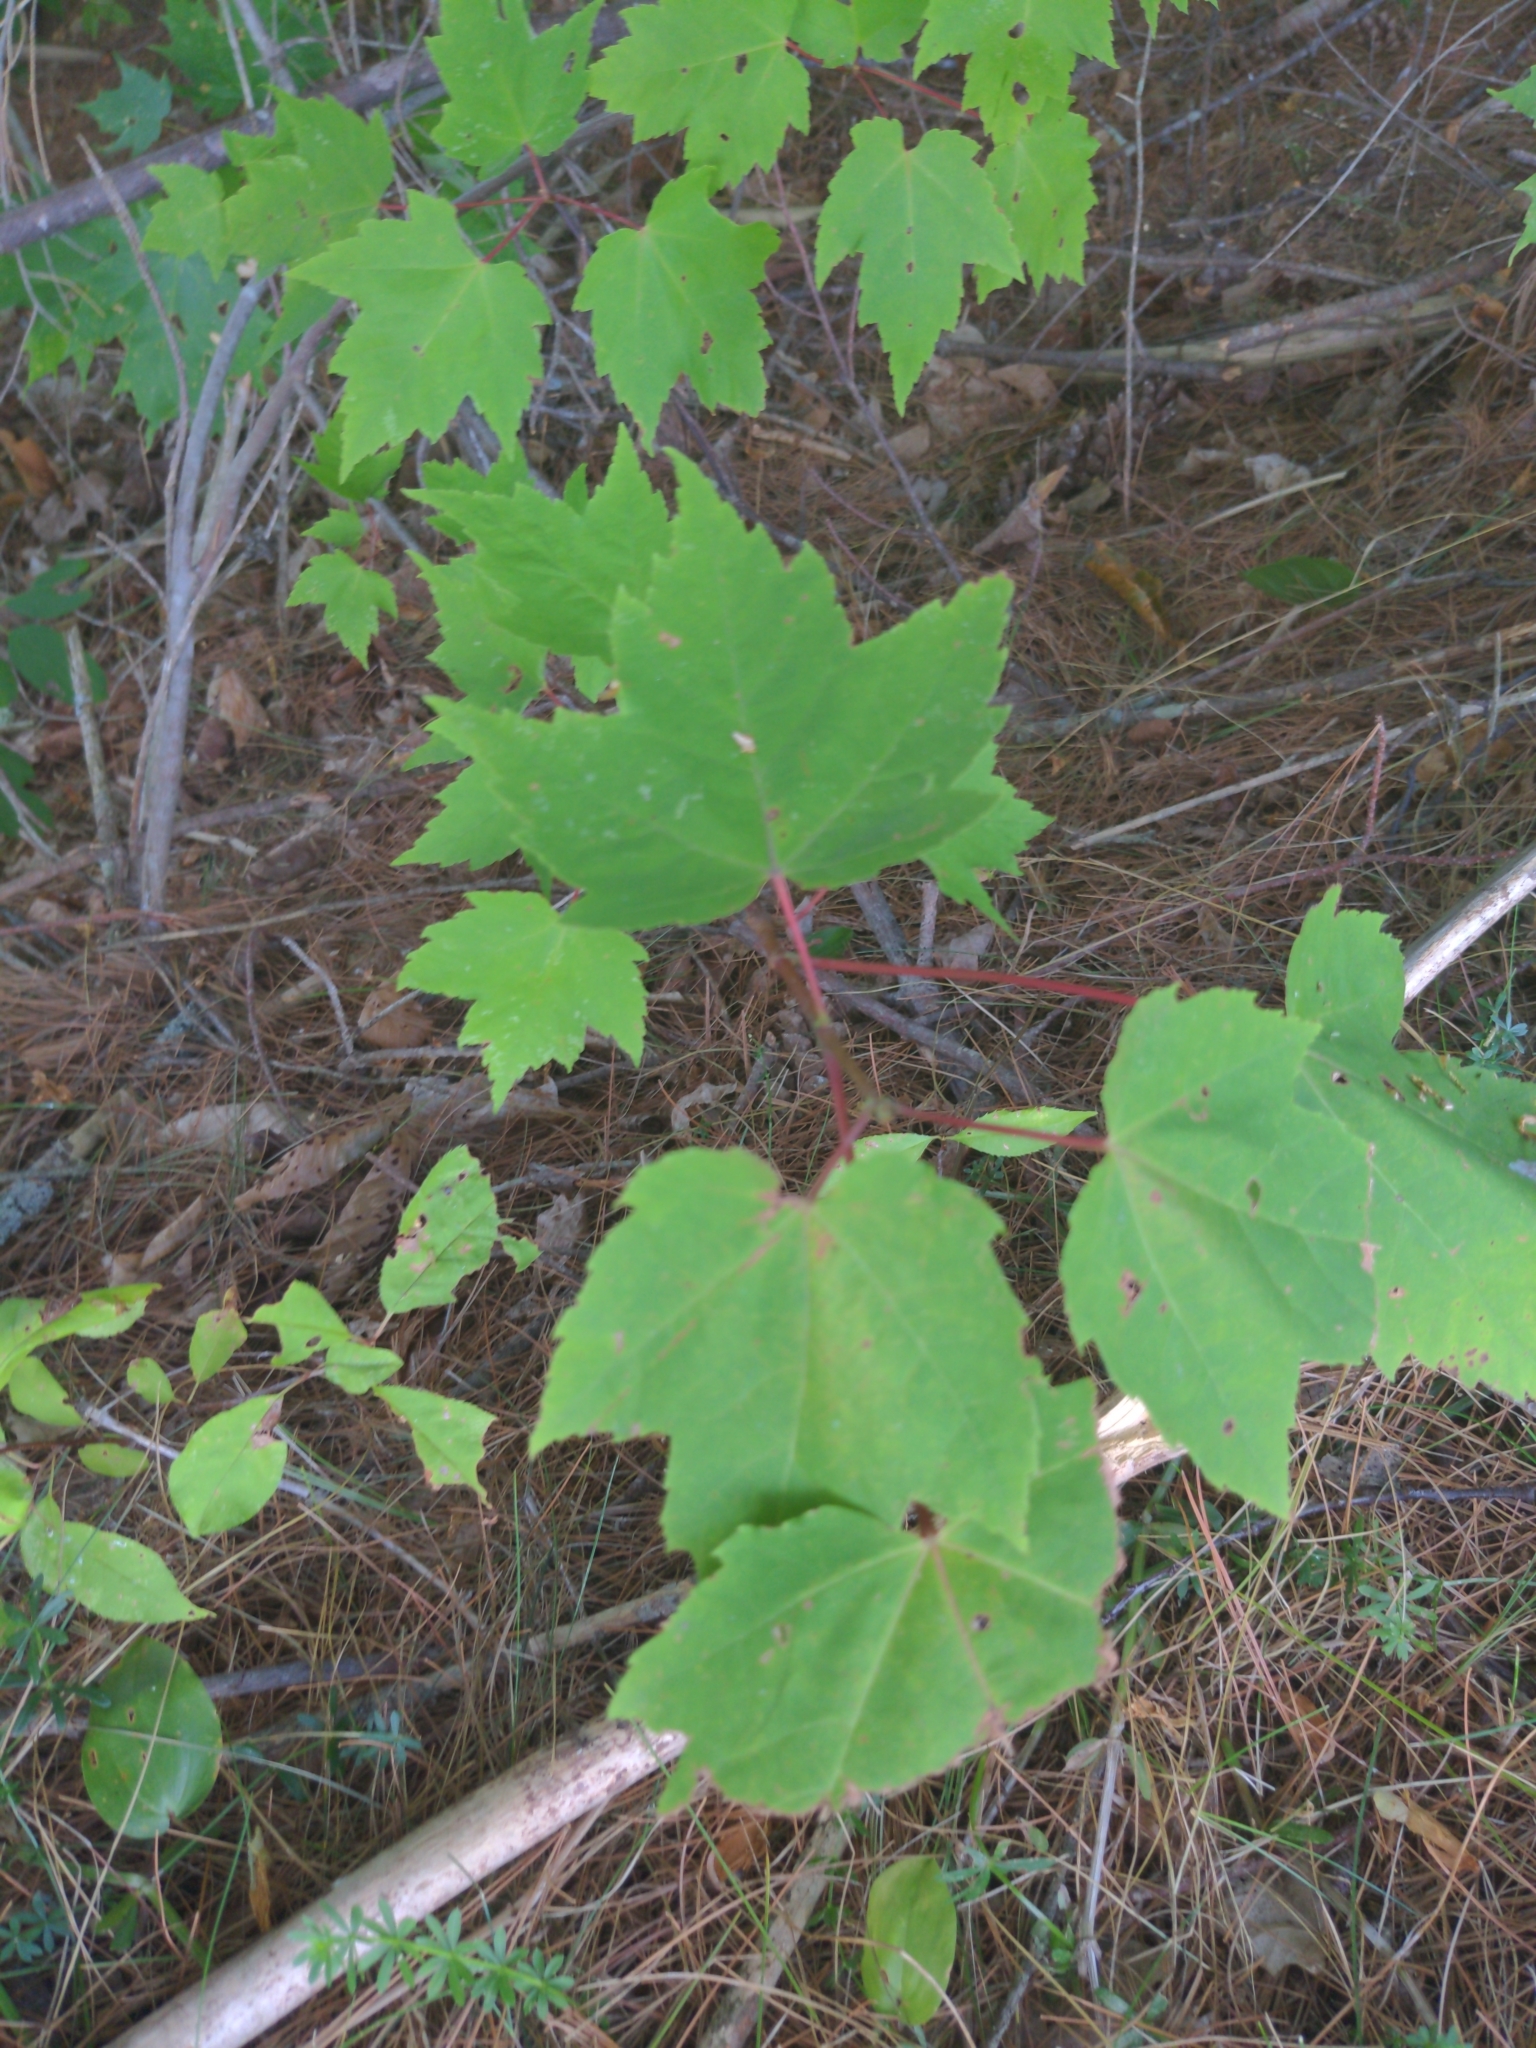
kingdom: Plantae
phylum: Tracheophyta
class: Magnoliopsida
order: Sapindales
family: Sapindaceae
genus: Acer
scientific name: Acer rubrum
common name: Red maple
